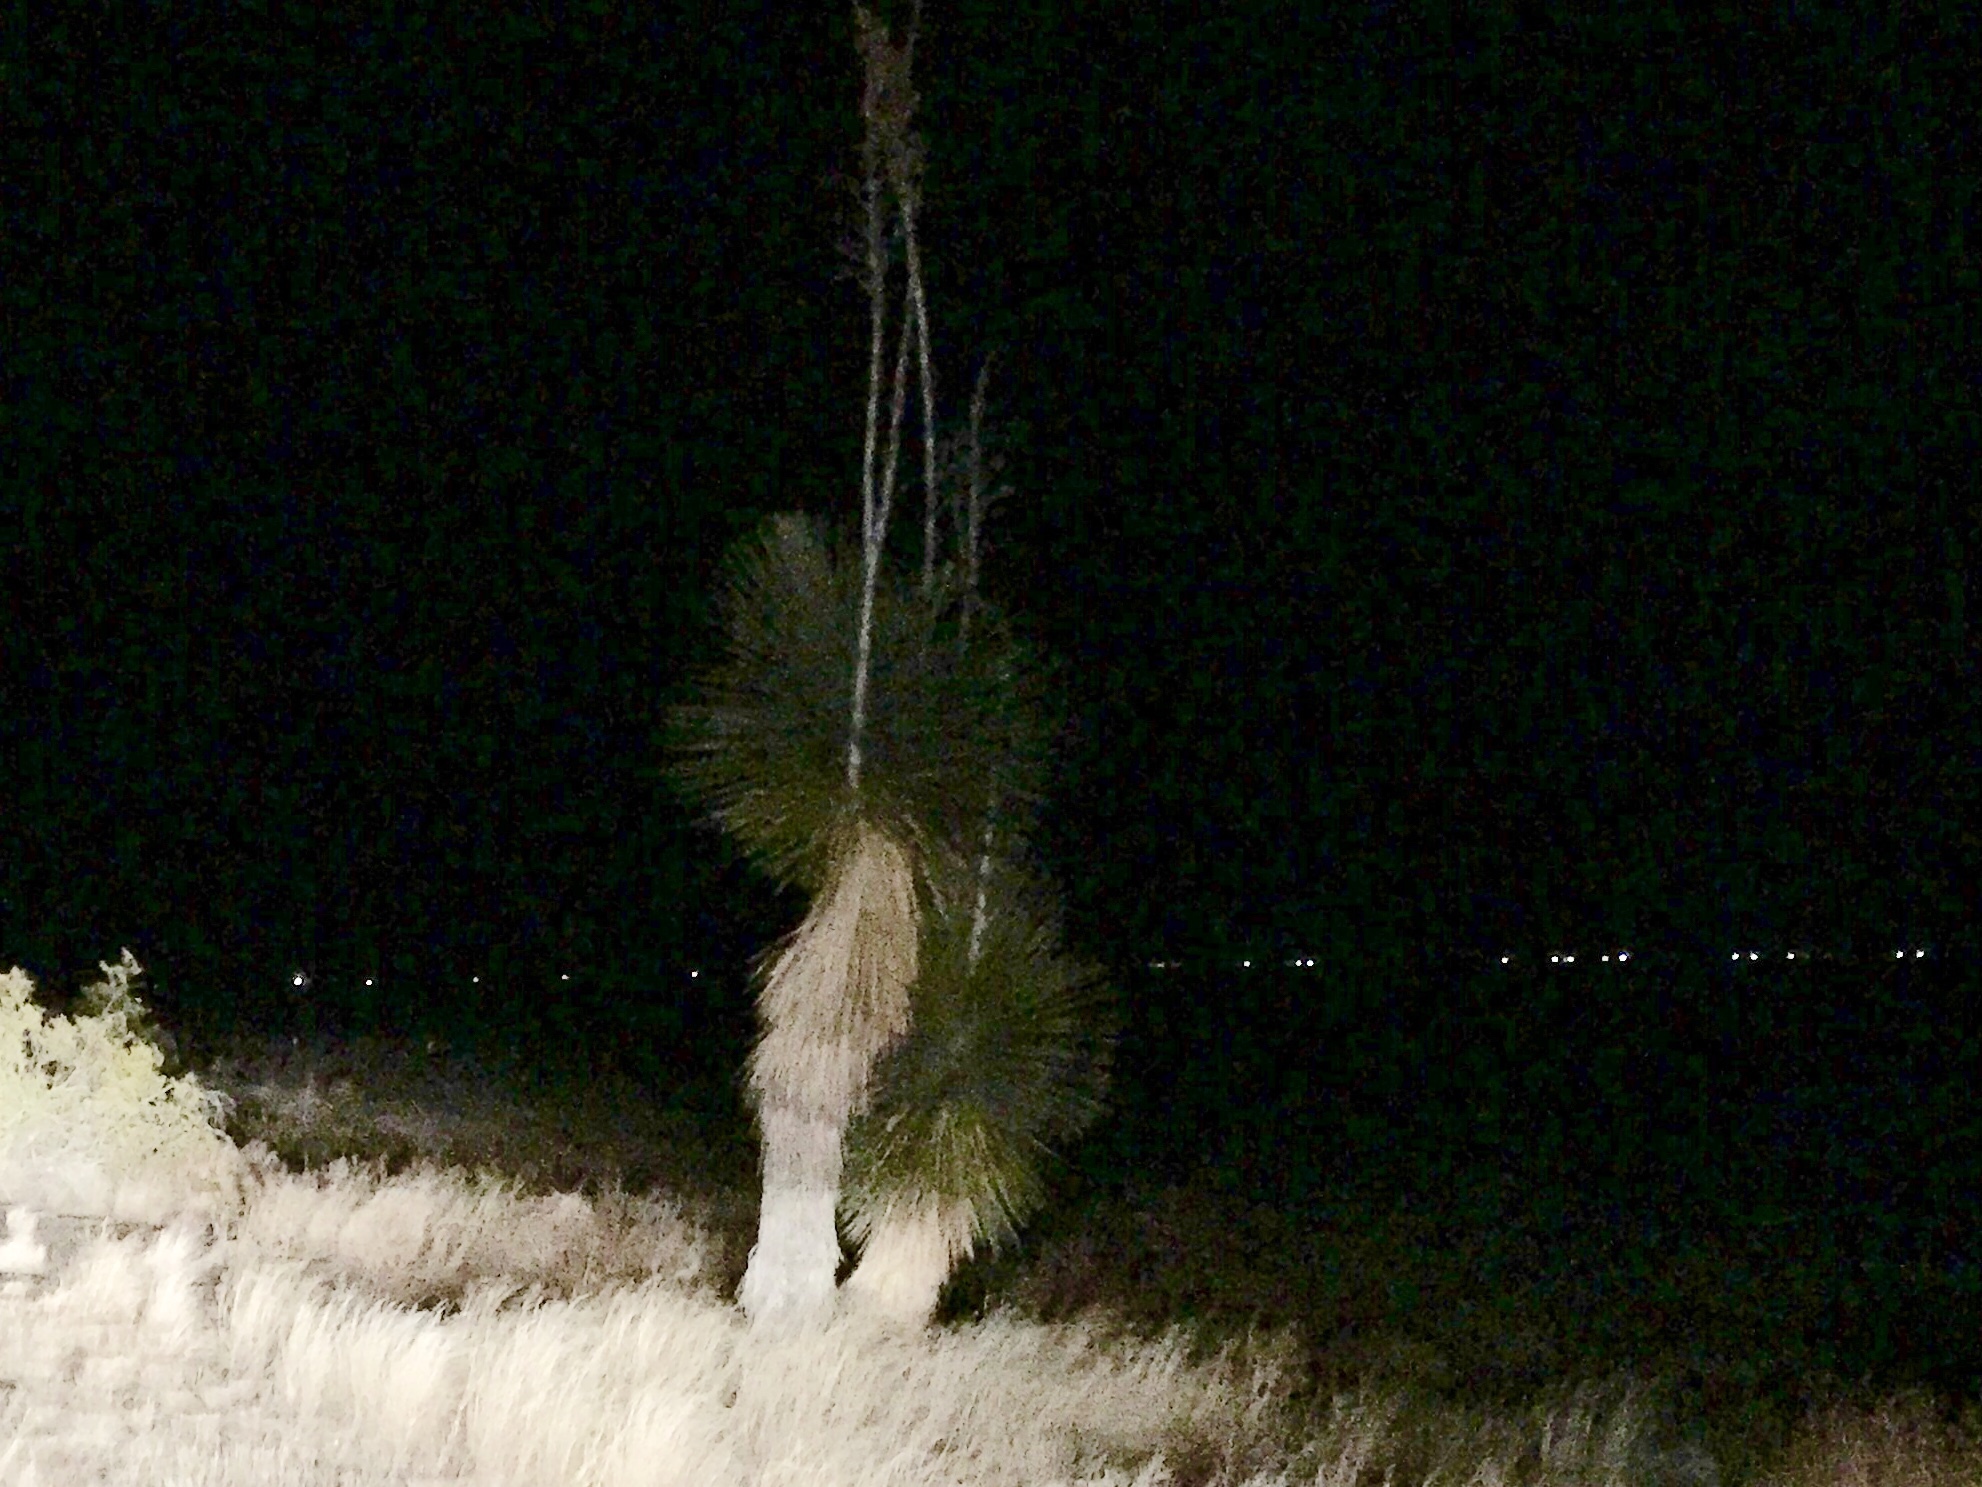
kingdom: Plantae
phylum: Tracheophyta
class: Liliopsida
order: Asparagales
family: Asparagaceae
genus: Yucca
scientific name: Yucca elata
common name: Palmella
